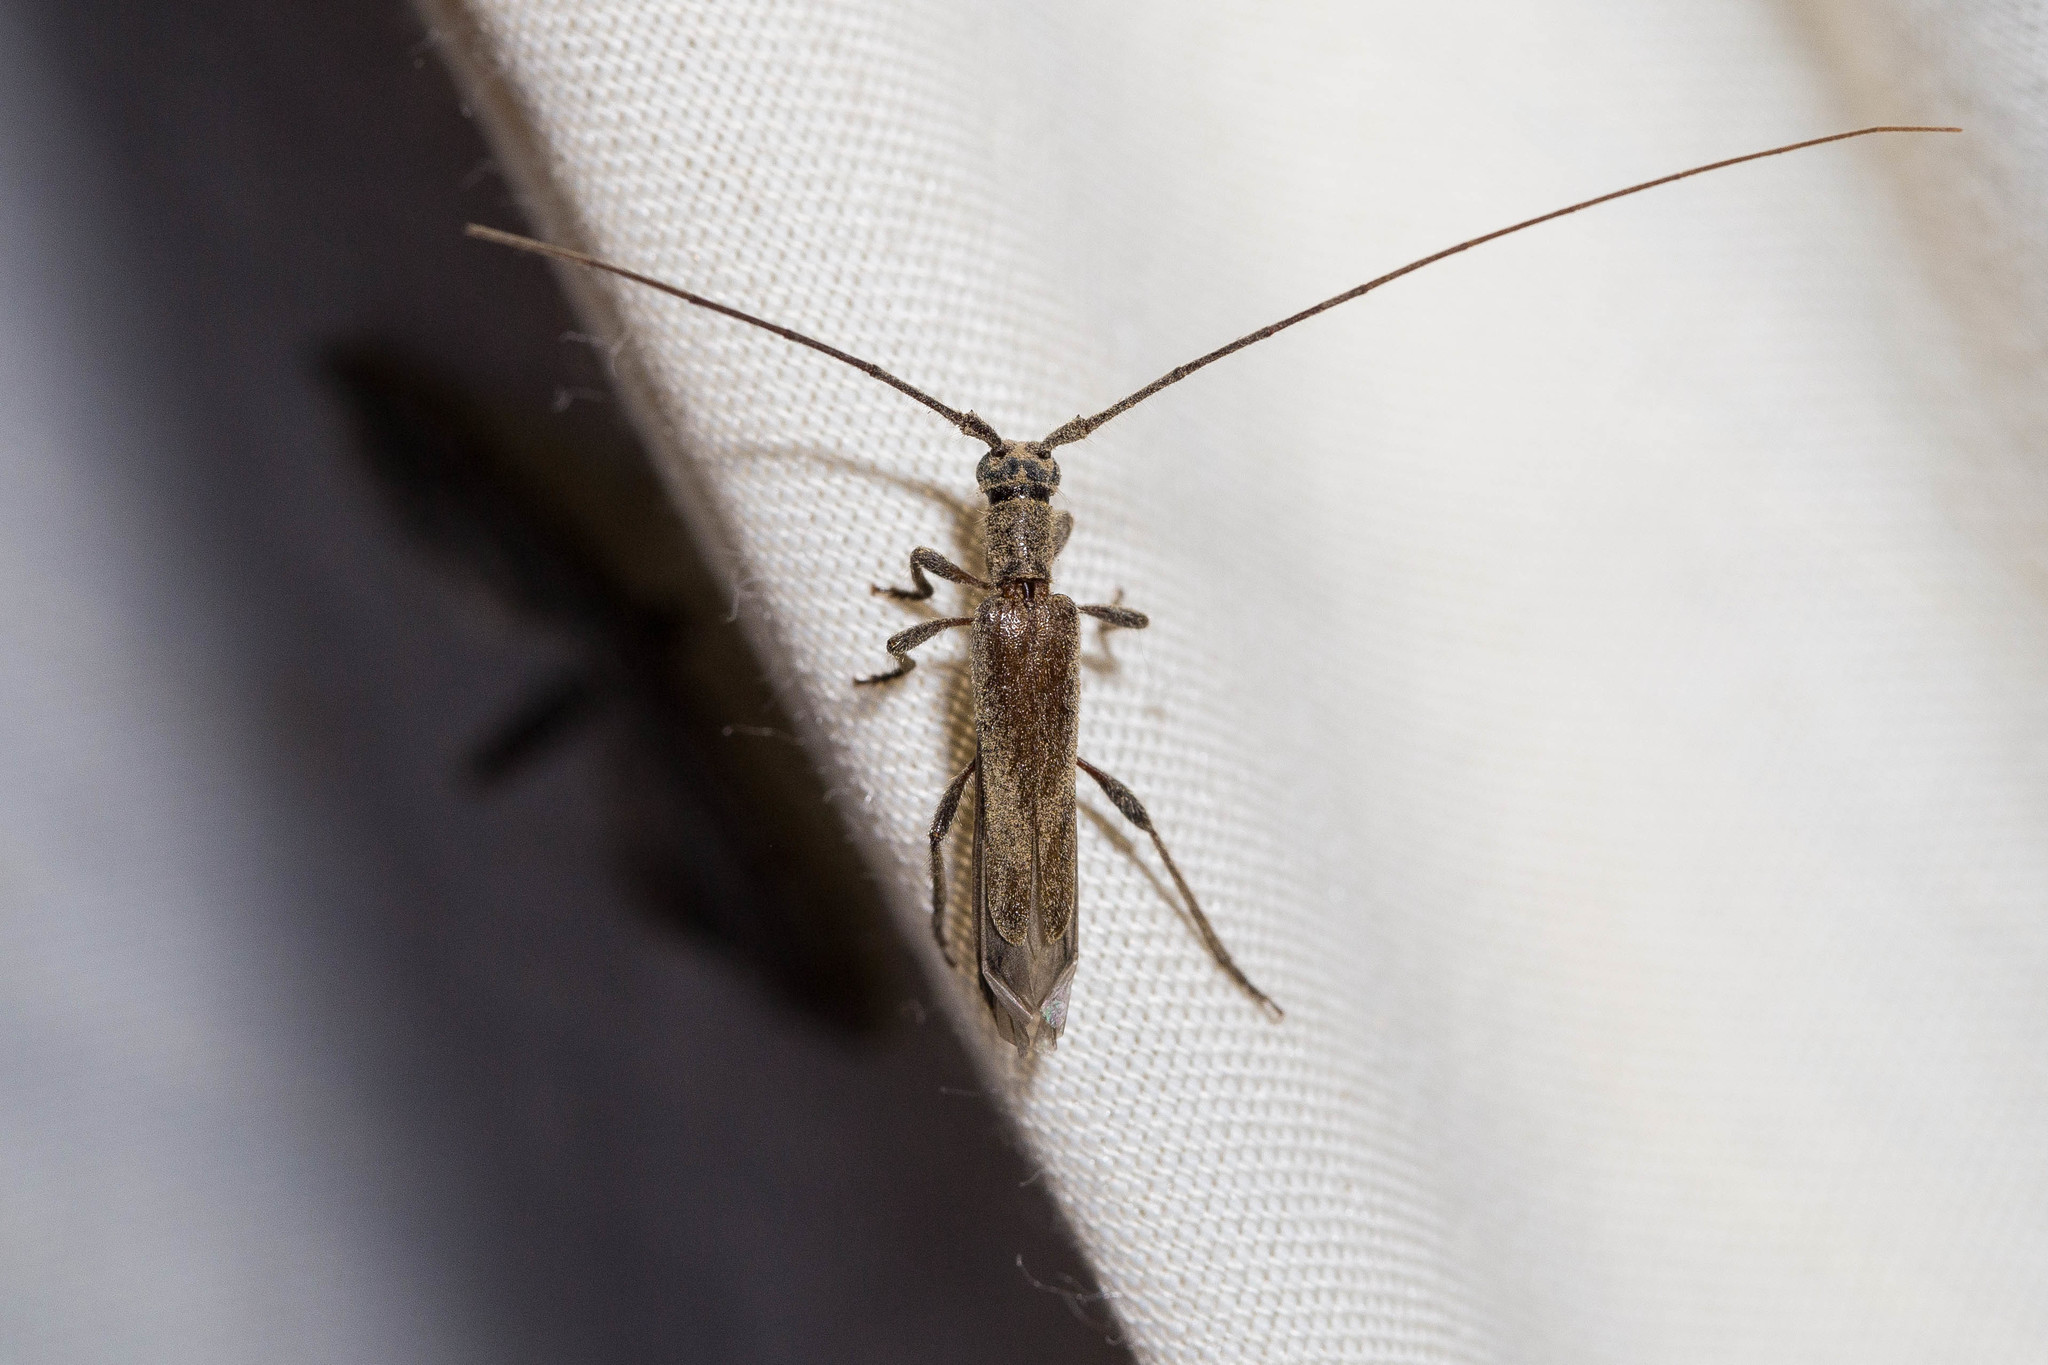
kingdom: Animalia
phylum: Arthropoda
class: Insecta
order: Coleoptera
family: Cerambycidae
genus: Styloxus
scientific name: Styloxus fulleri
